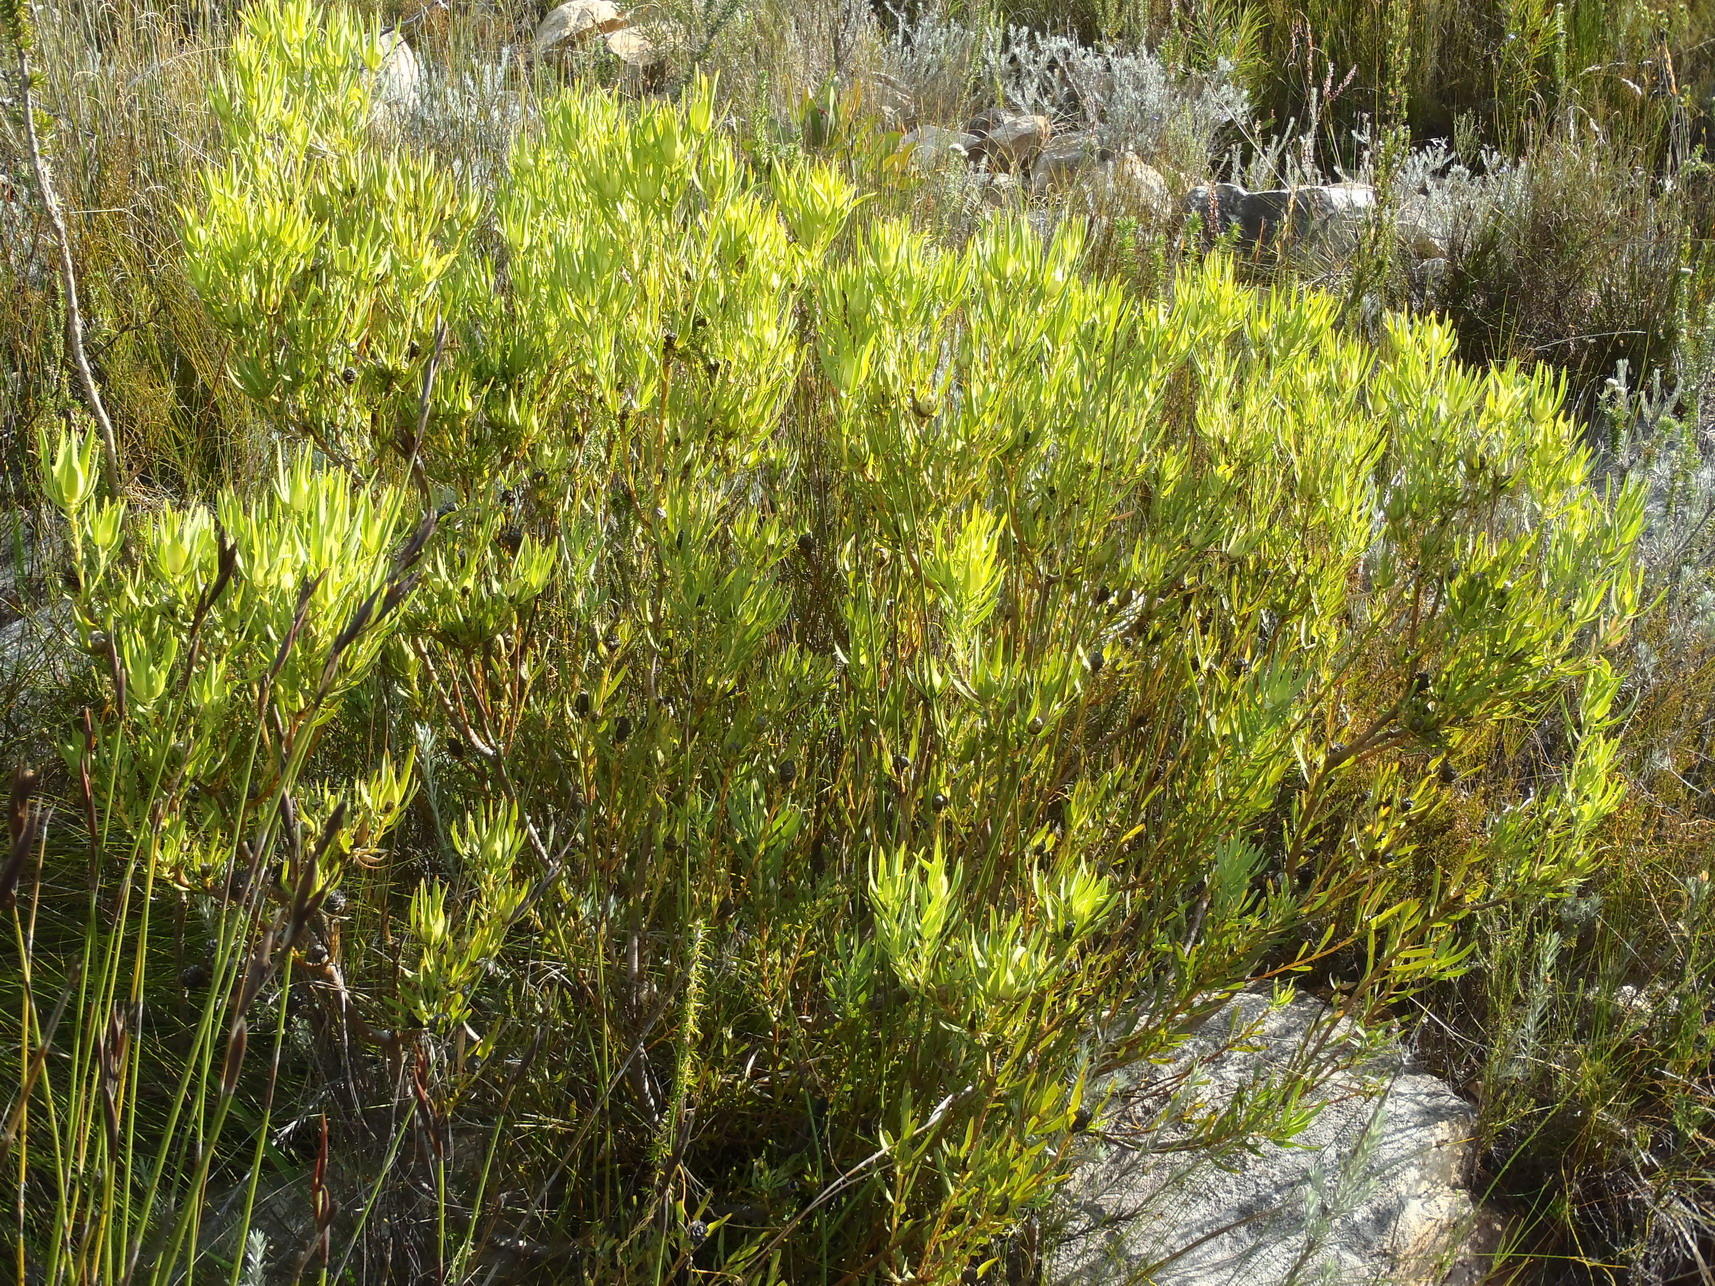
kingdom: Plantae
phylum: Tracheophyta
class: Magnoliopsida
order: Proteales
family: Proteaceae
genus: Leucadendron
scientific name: Leucadendron salignum
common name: Common sunshine conebush
